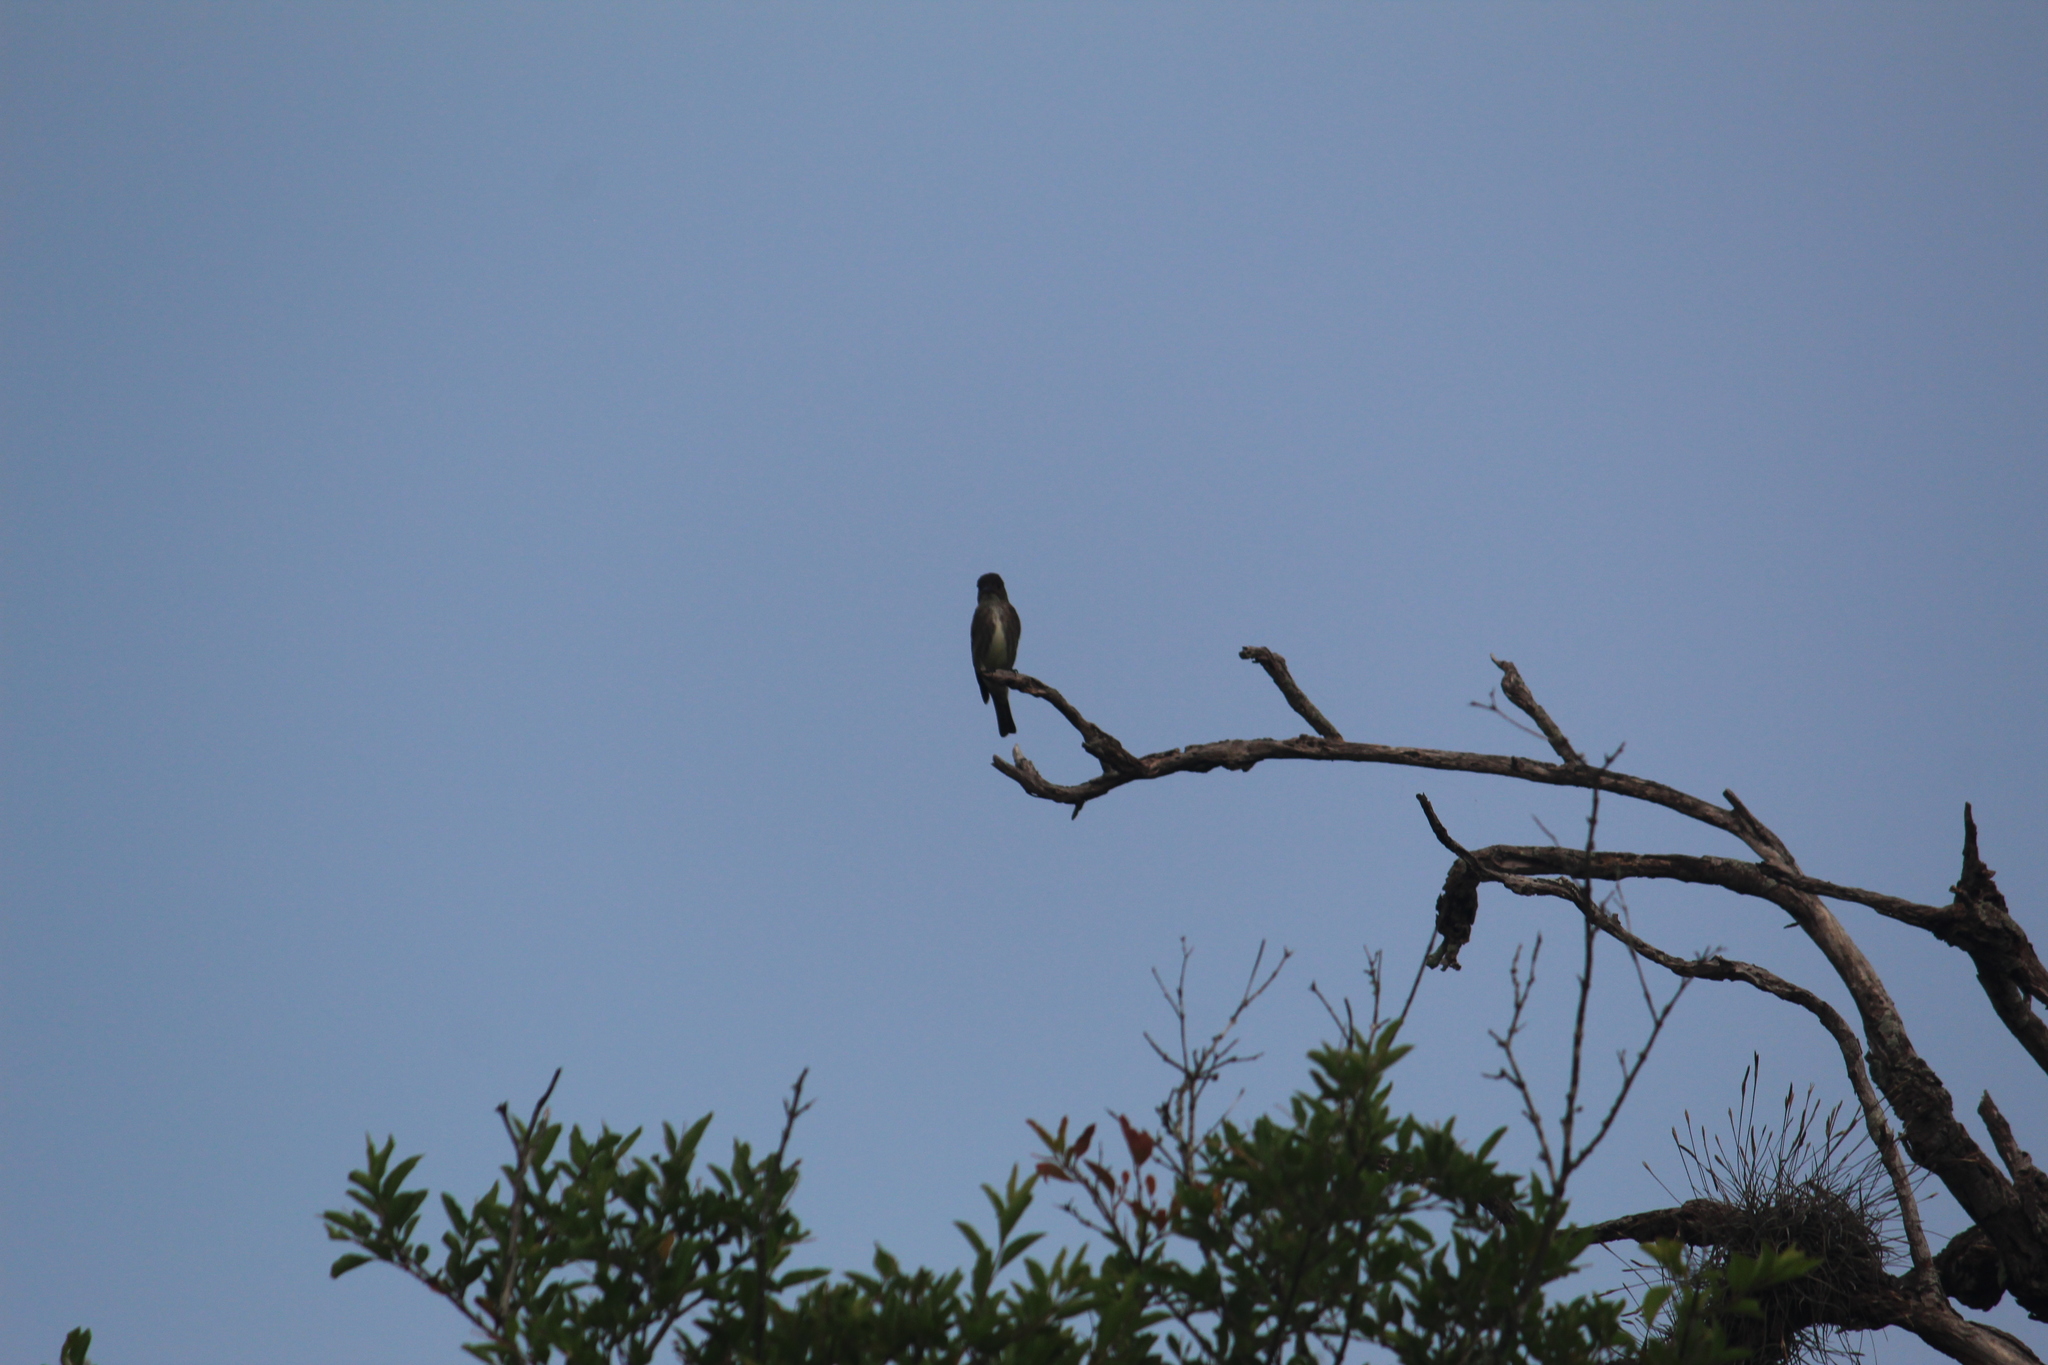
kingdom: Animalia
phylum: Chordata
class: Aves
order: Passeriformes
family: Tyrannidae
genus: Contopus
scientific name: Contopus cooperi
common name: Olive-sided flycatcher
